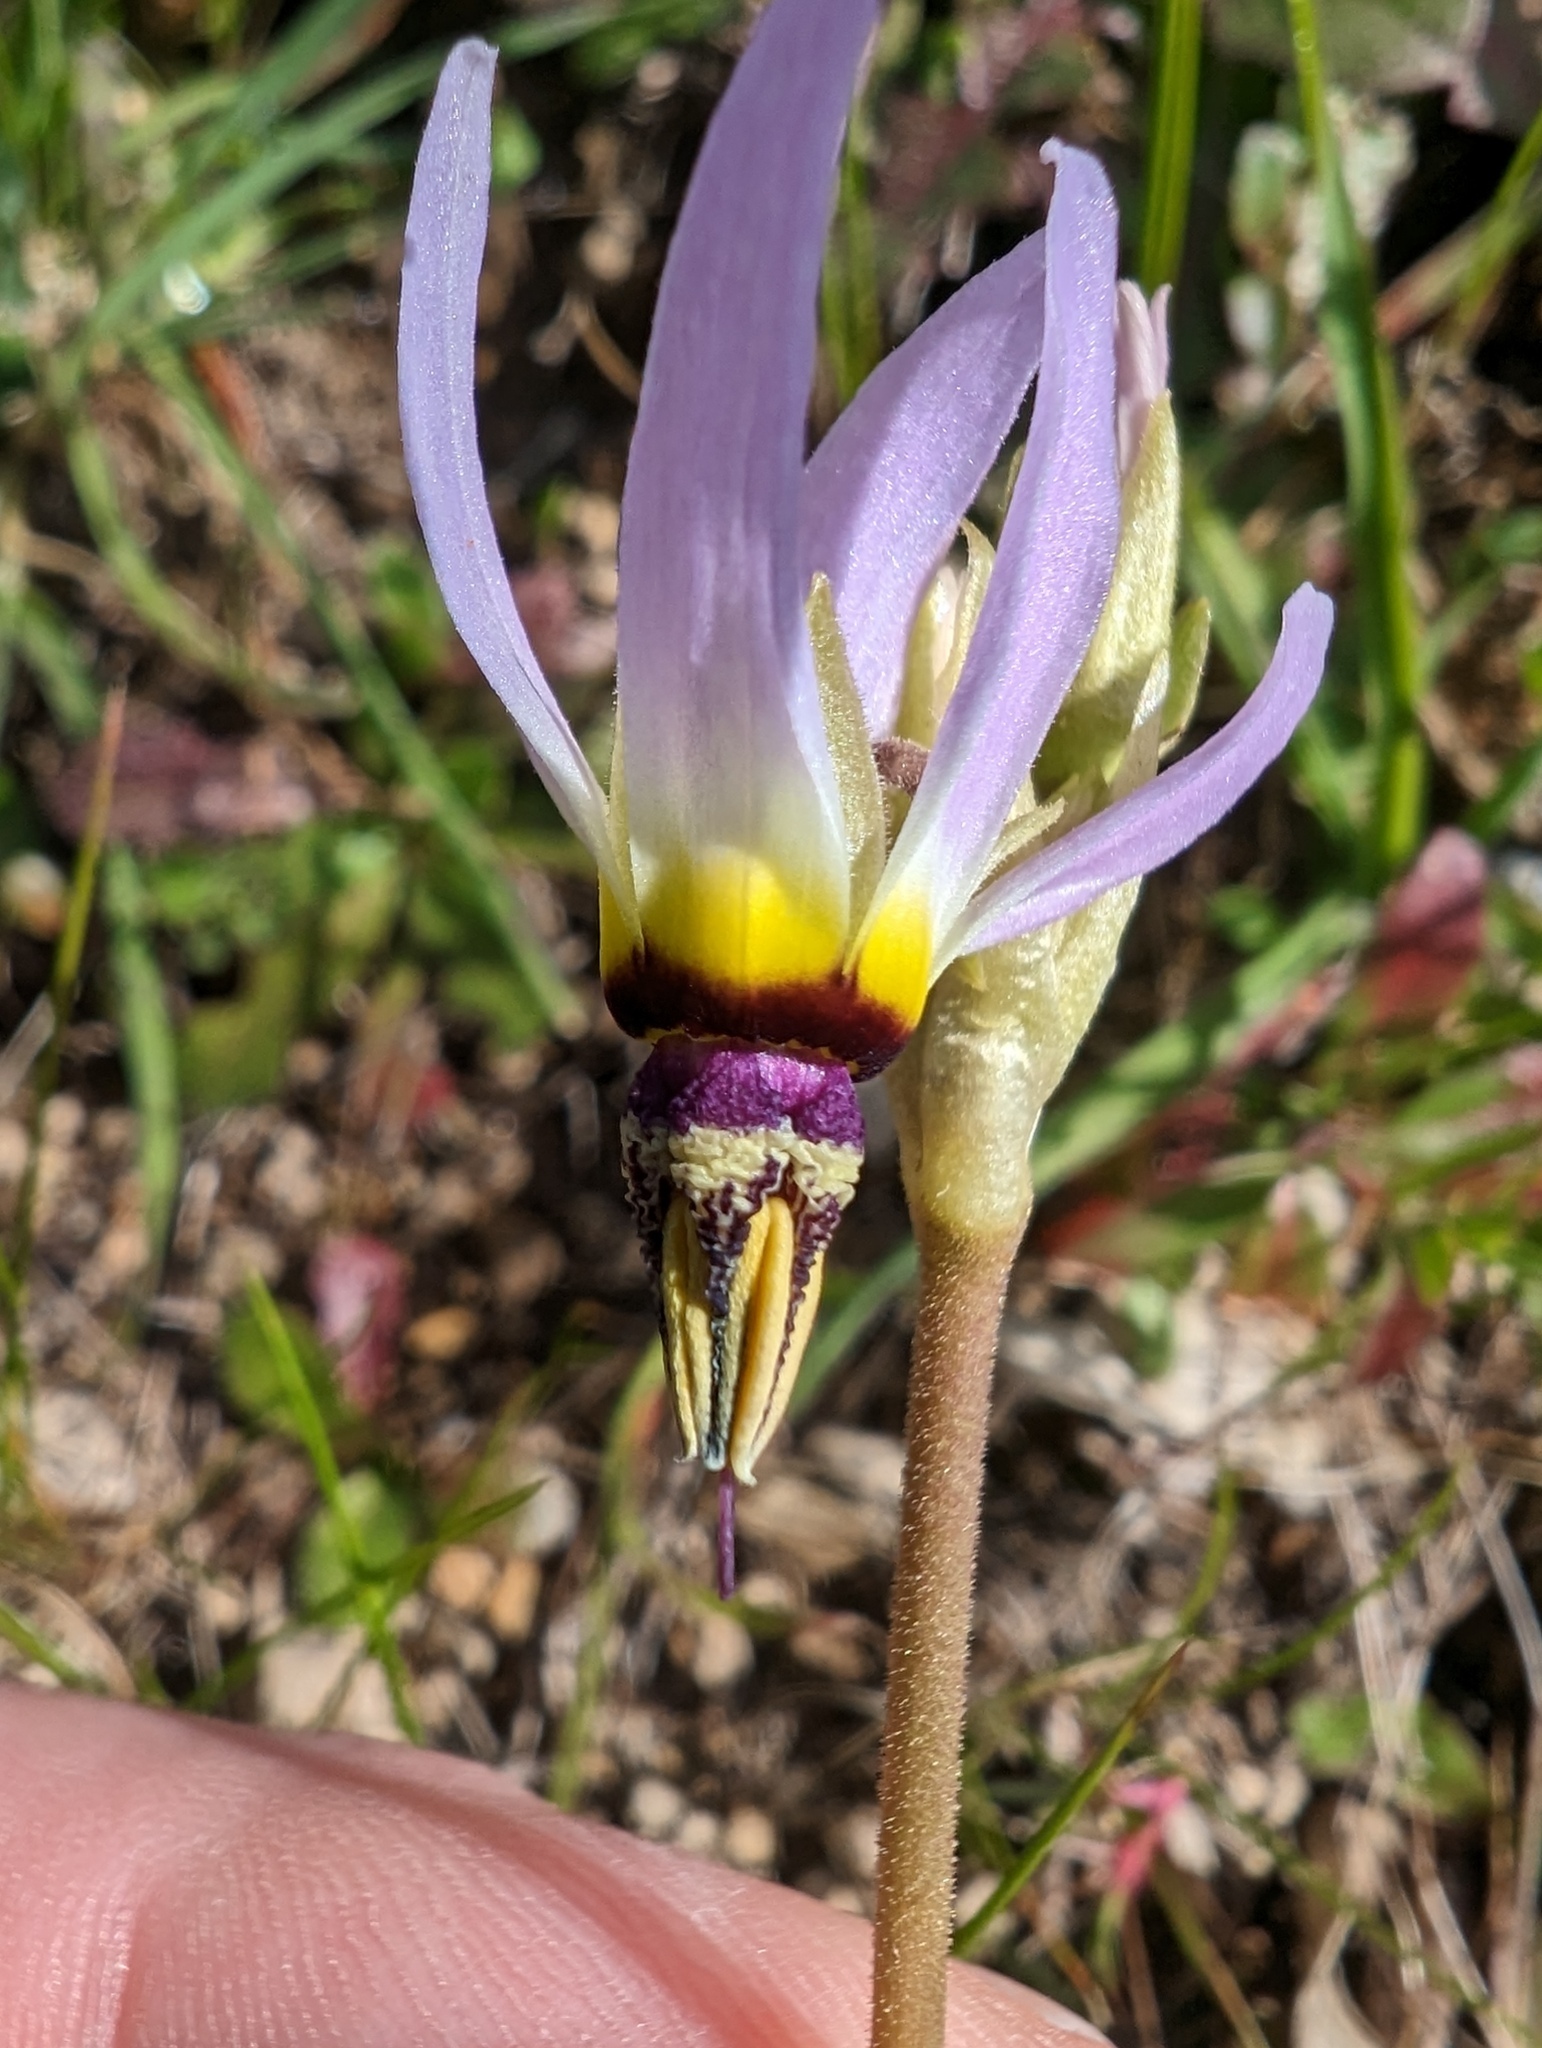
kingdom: Plantae
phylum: Tracheophyta
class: Magnoliopsida
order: Ericales
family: Primulaceae
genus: Dodecatheon
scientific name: Dodecatheon clevelandii
